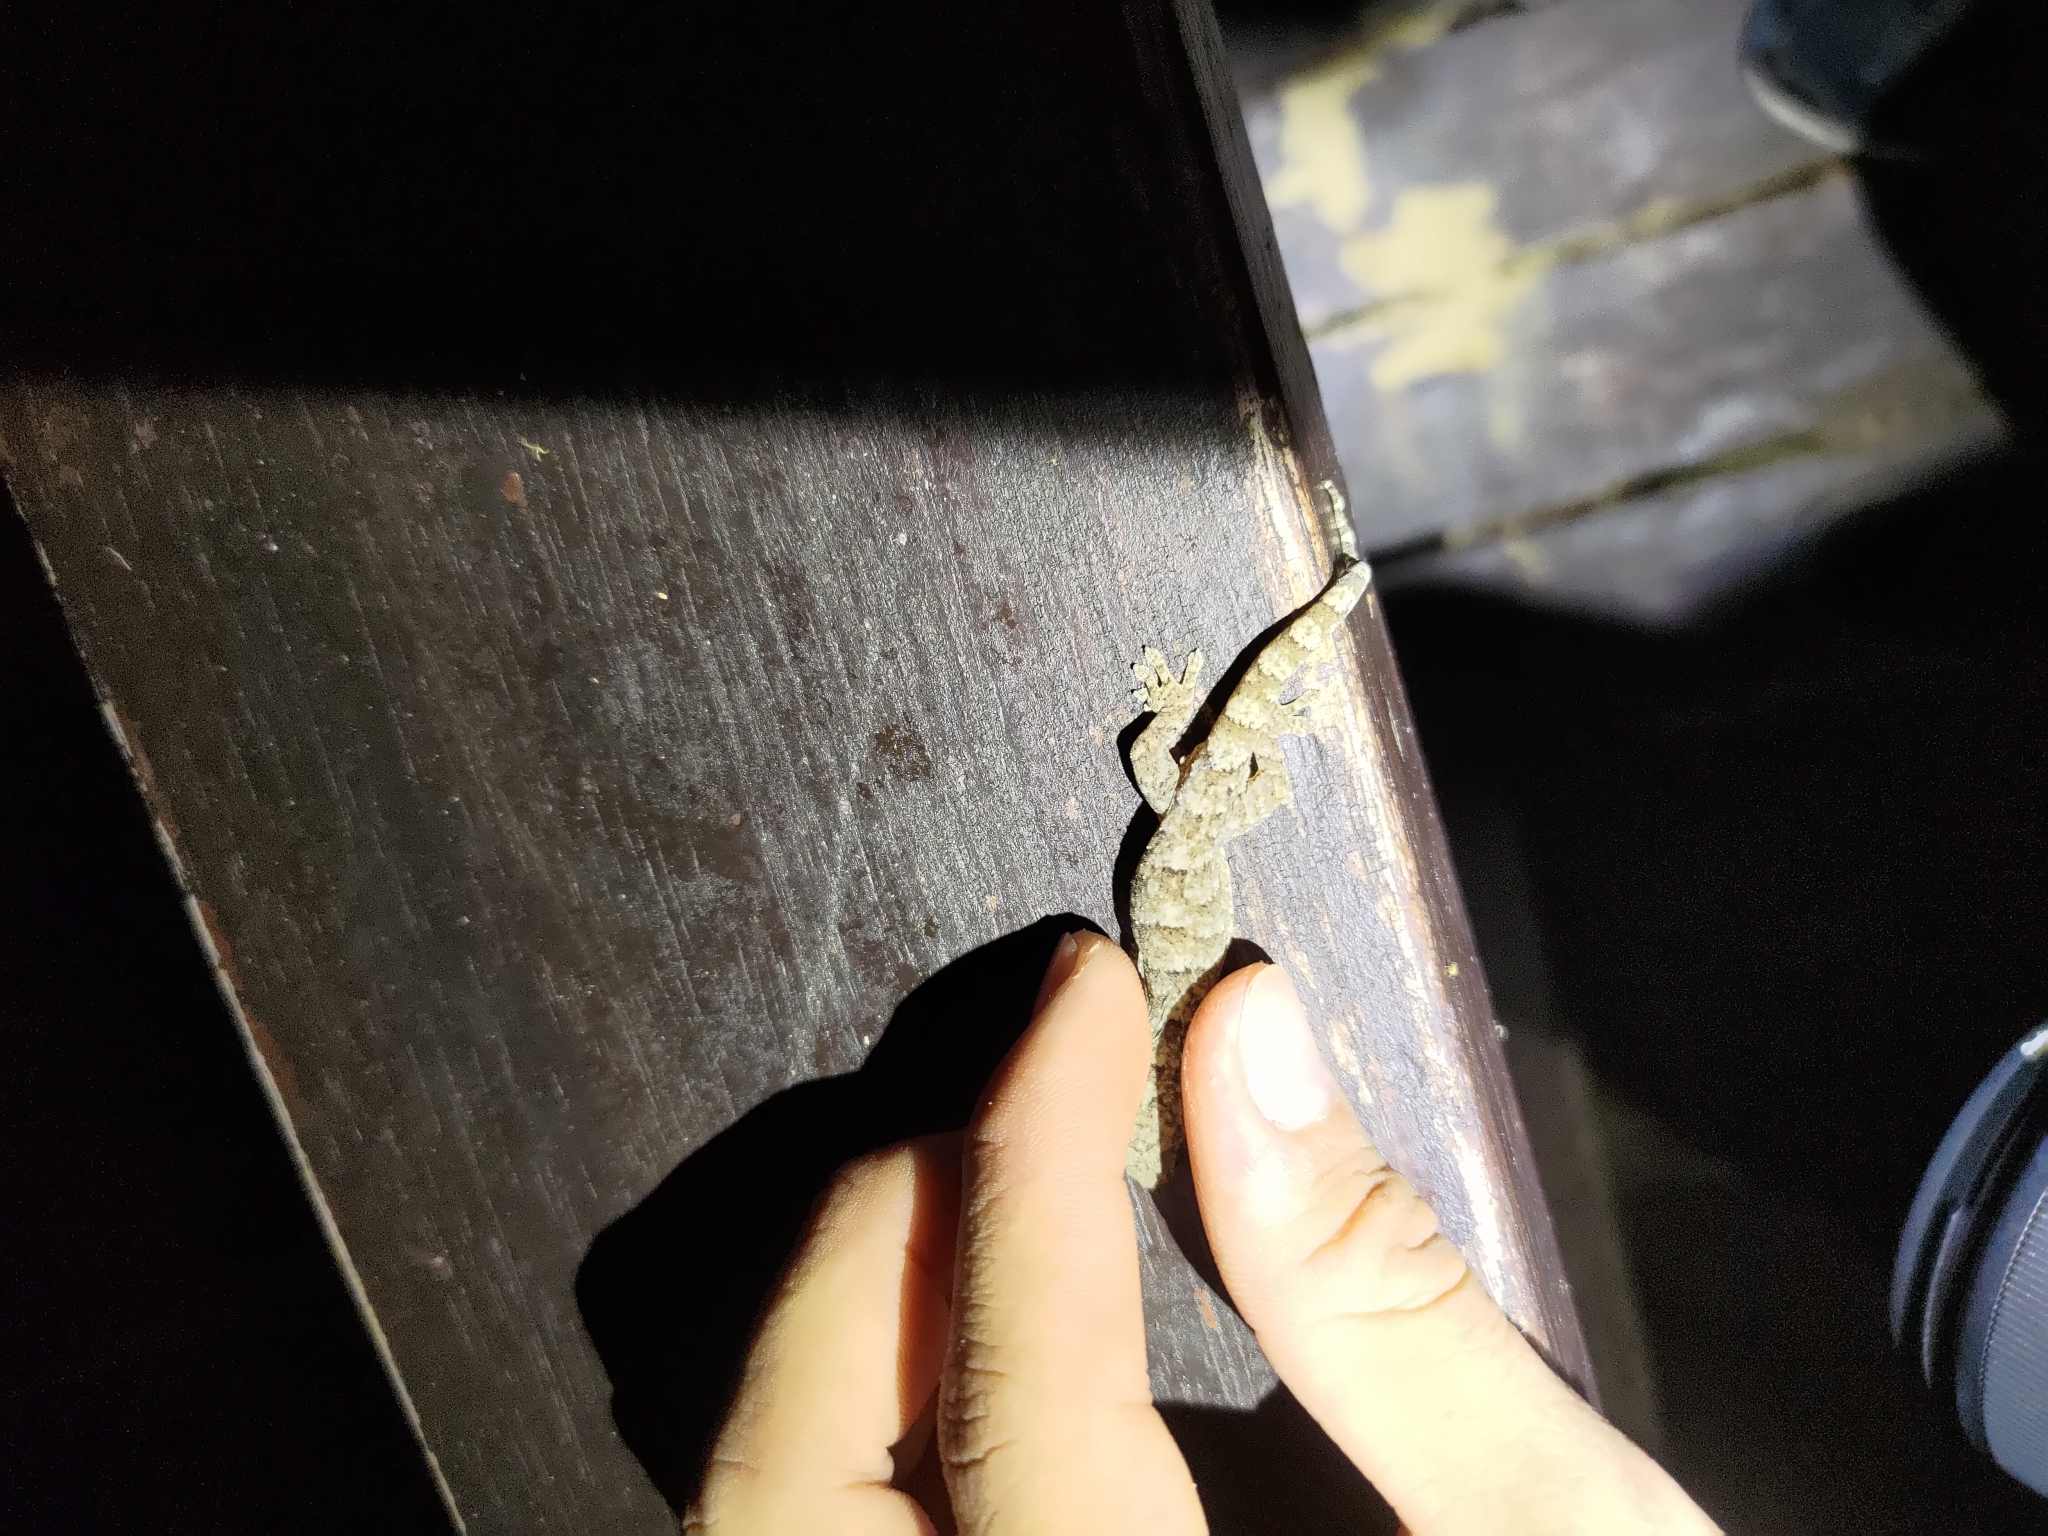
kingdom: Animalia
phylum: Chordata
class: Squamata
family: Gekkonidae
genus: Gekko
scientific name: Gekko hokouensis
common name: Kwangsi gecko
